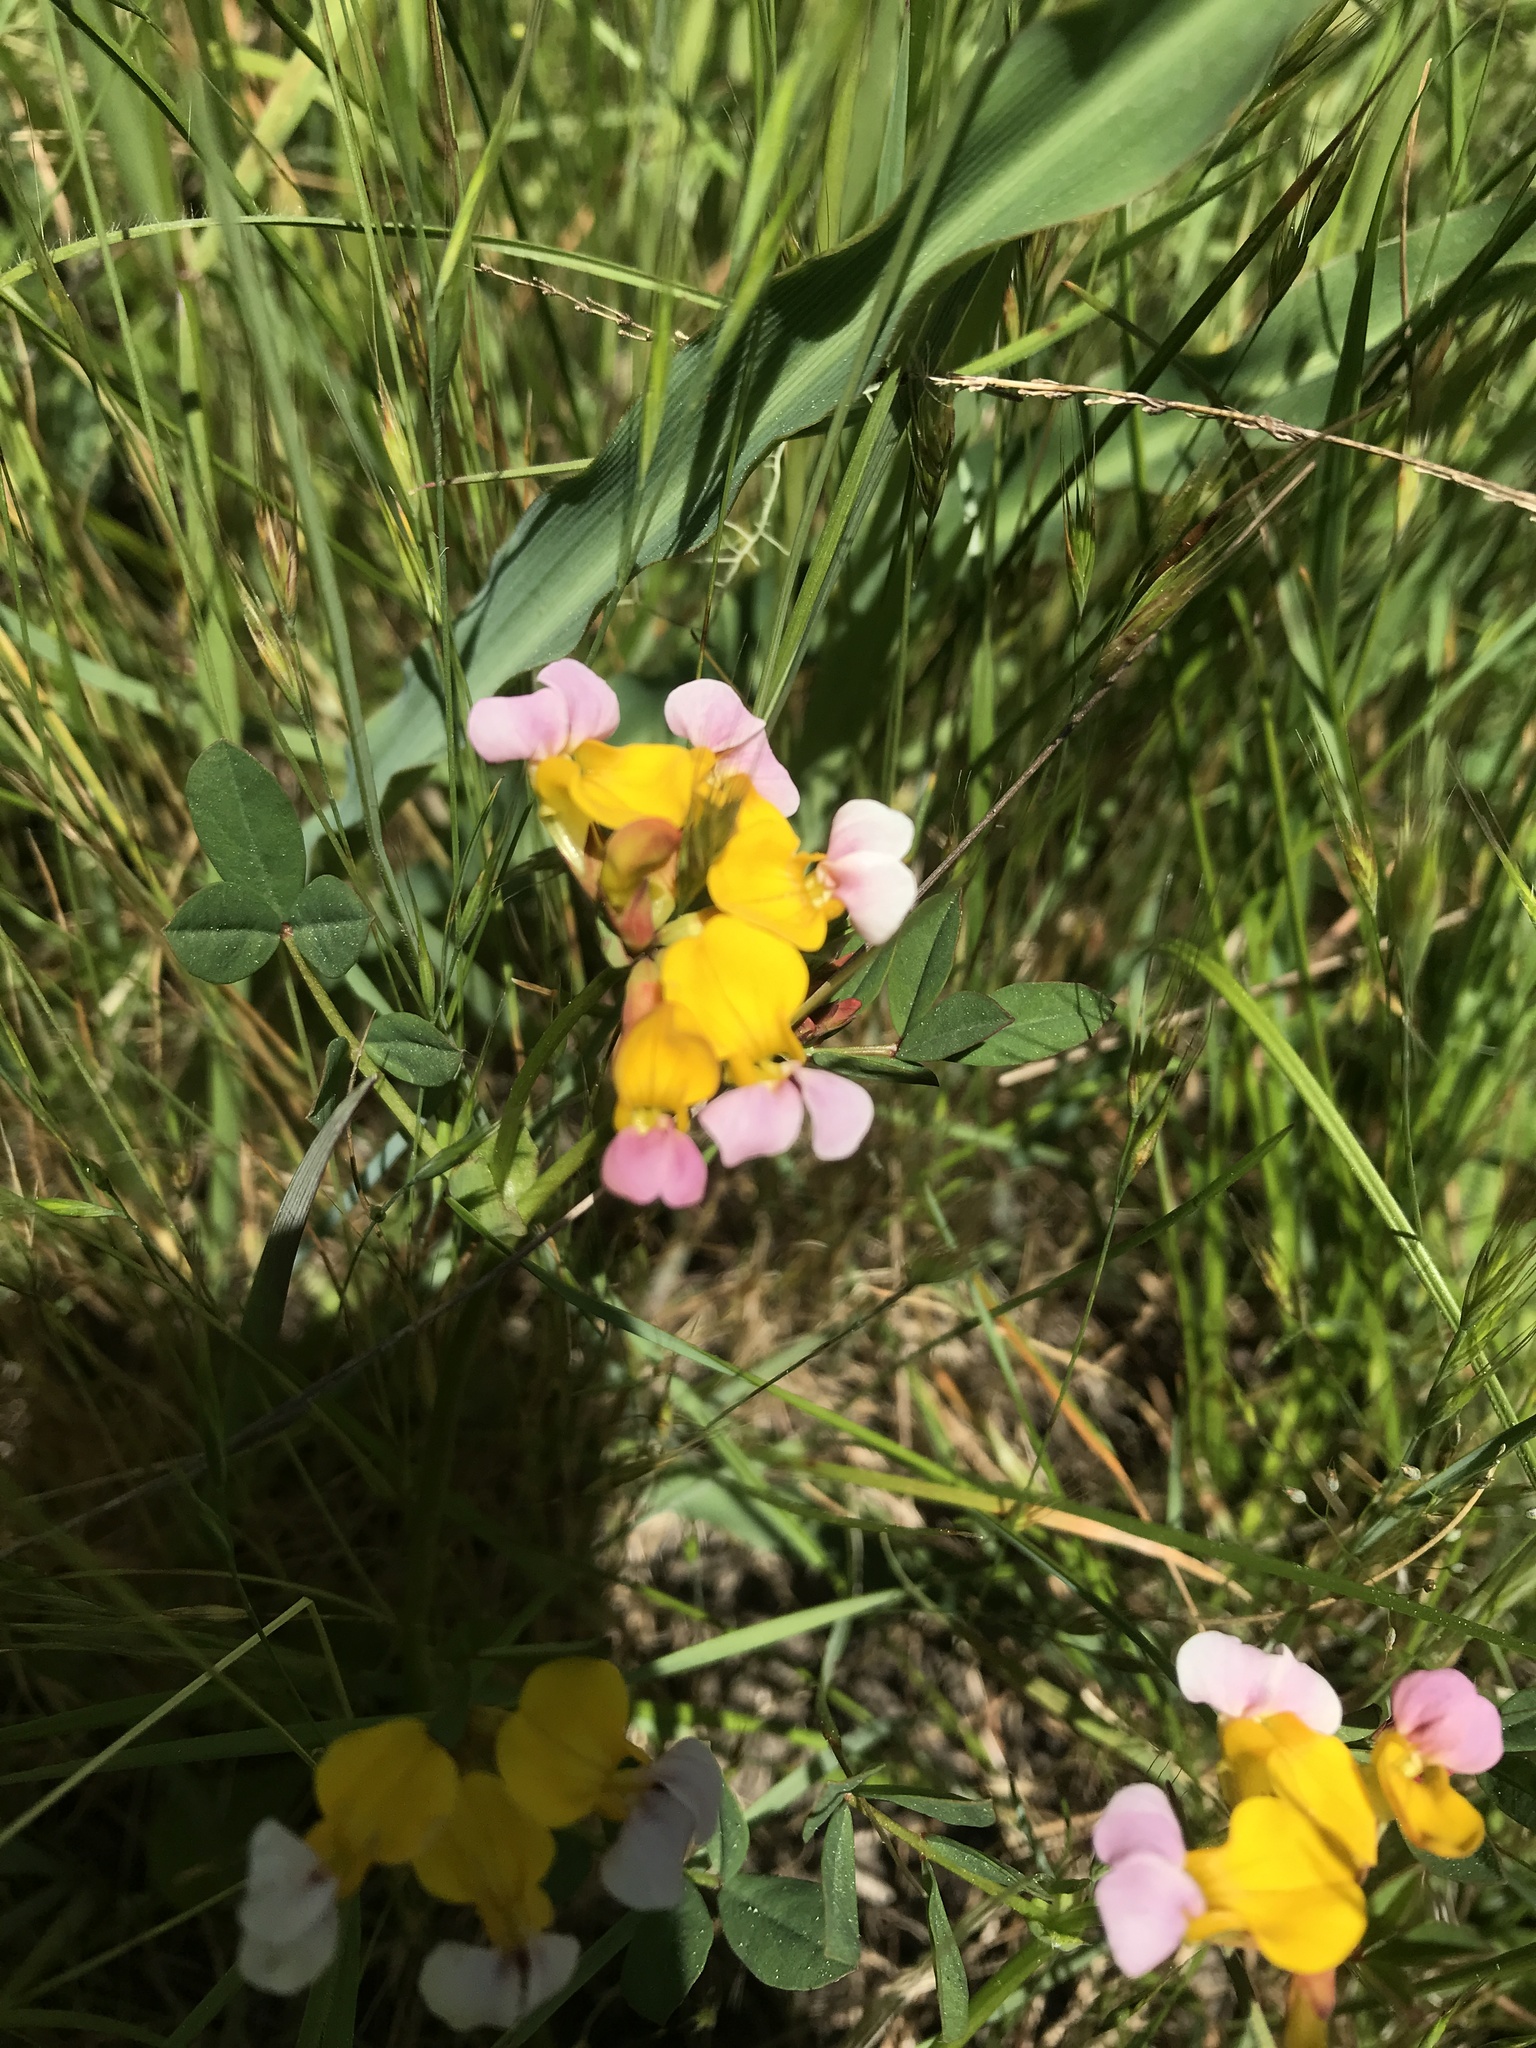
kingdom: Plantae
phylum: Tracheophyta
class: Magnoliopsida
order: Fabales
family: Fabaceae
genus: Hosackia
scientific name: Hosackia gracilis
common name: Seaside bird's-foot lotus
